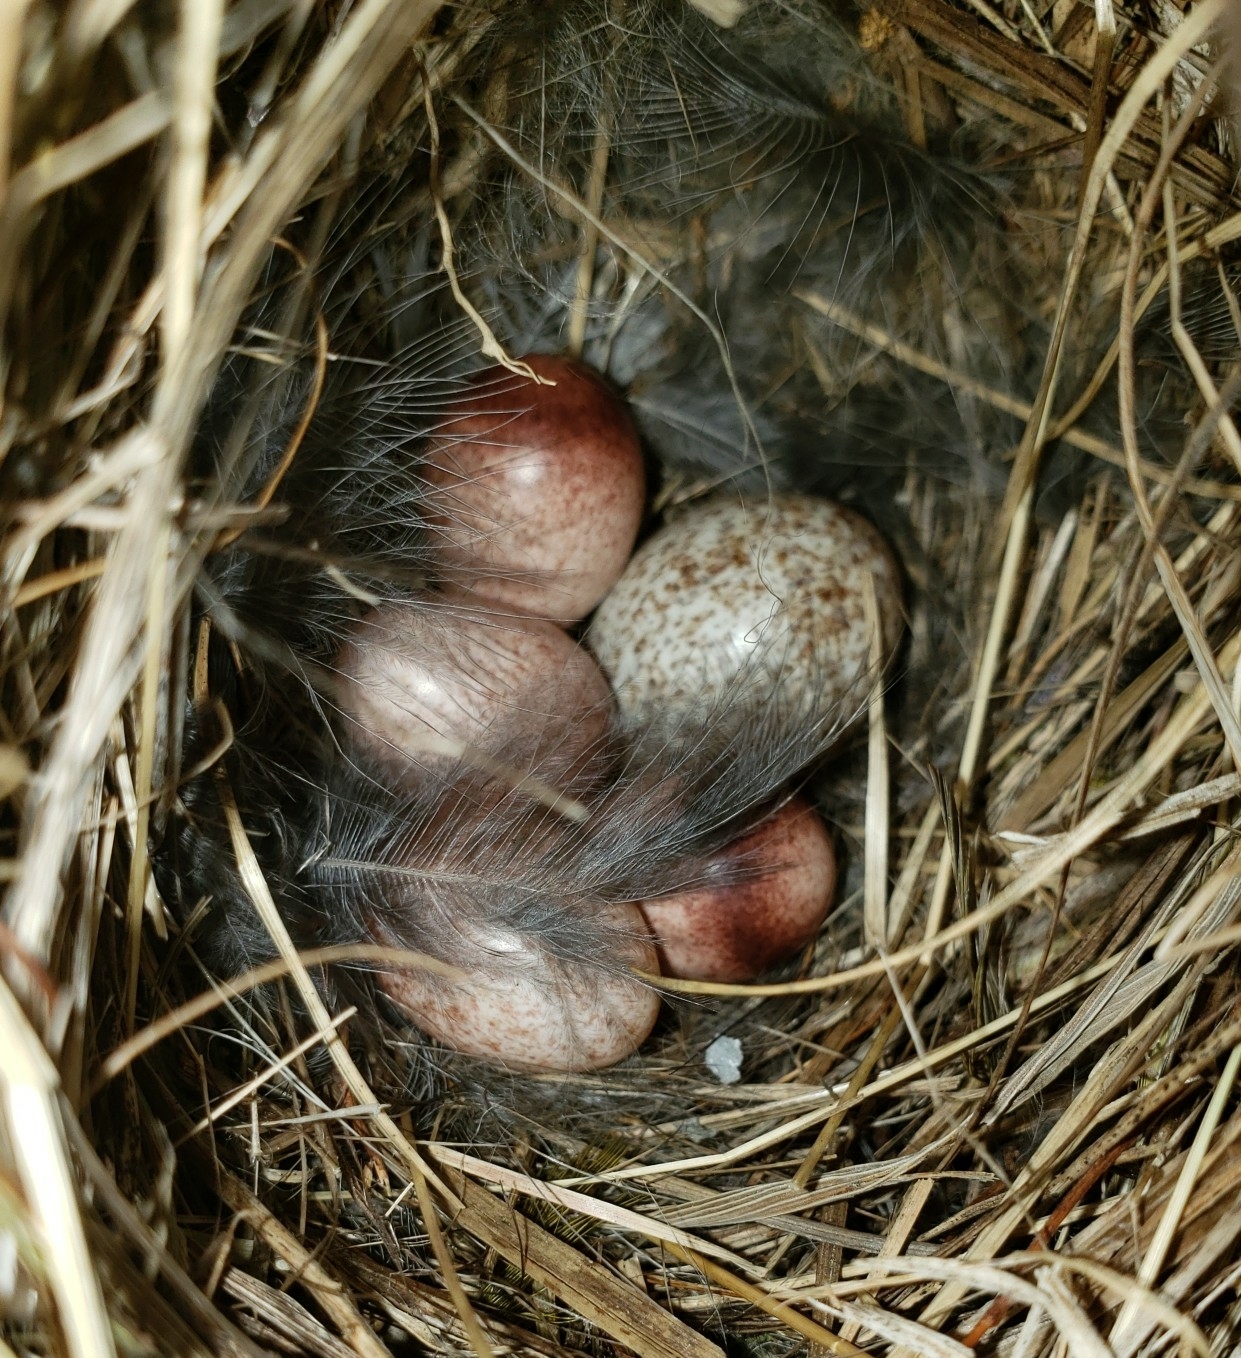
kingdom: Animalia
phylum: Chordata
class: Aves
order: Passeriformes
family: Troglodytidae
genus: Troglodytes
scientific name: Troglodytes aedon
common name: House wren
